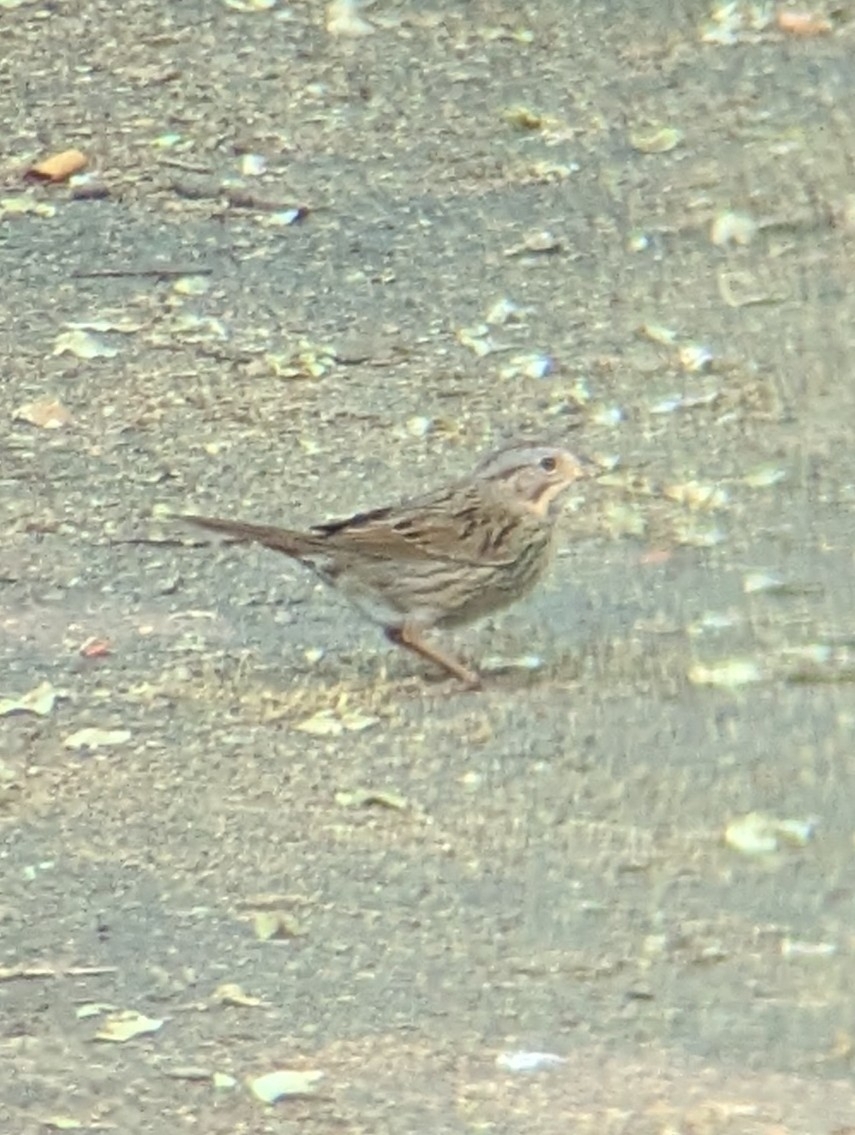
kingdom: Animalia
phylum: Chordata
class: Aves
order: Passeriformes
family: Passerellidae
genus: Melospiza
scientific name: Melospiza lincolnii
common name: Lincoln's sparrow
